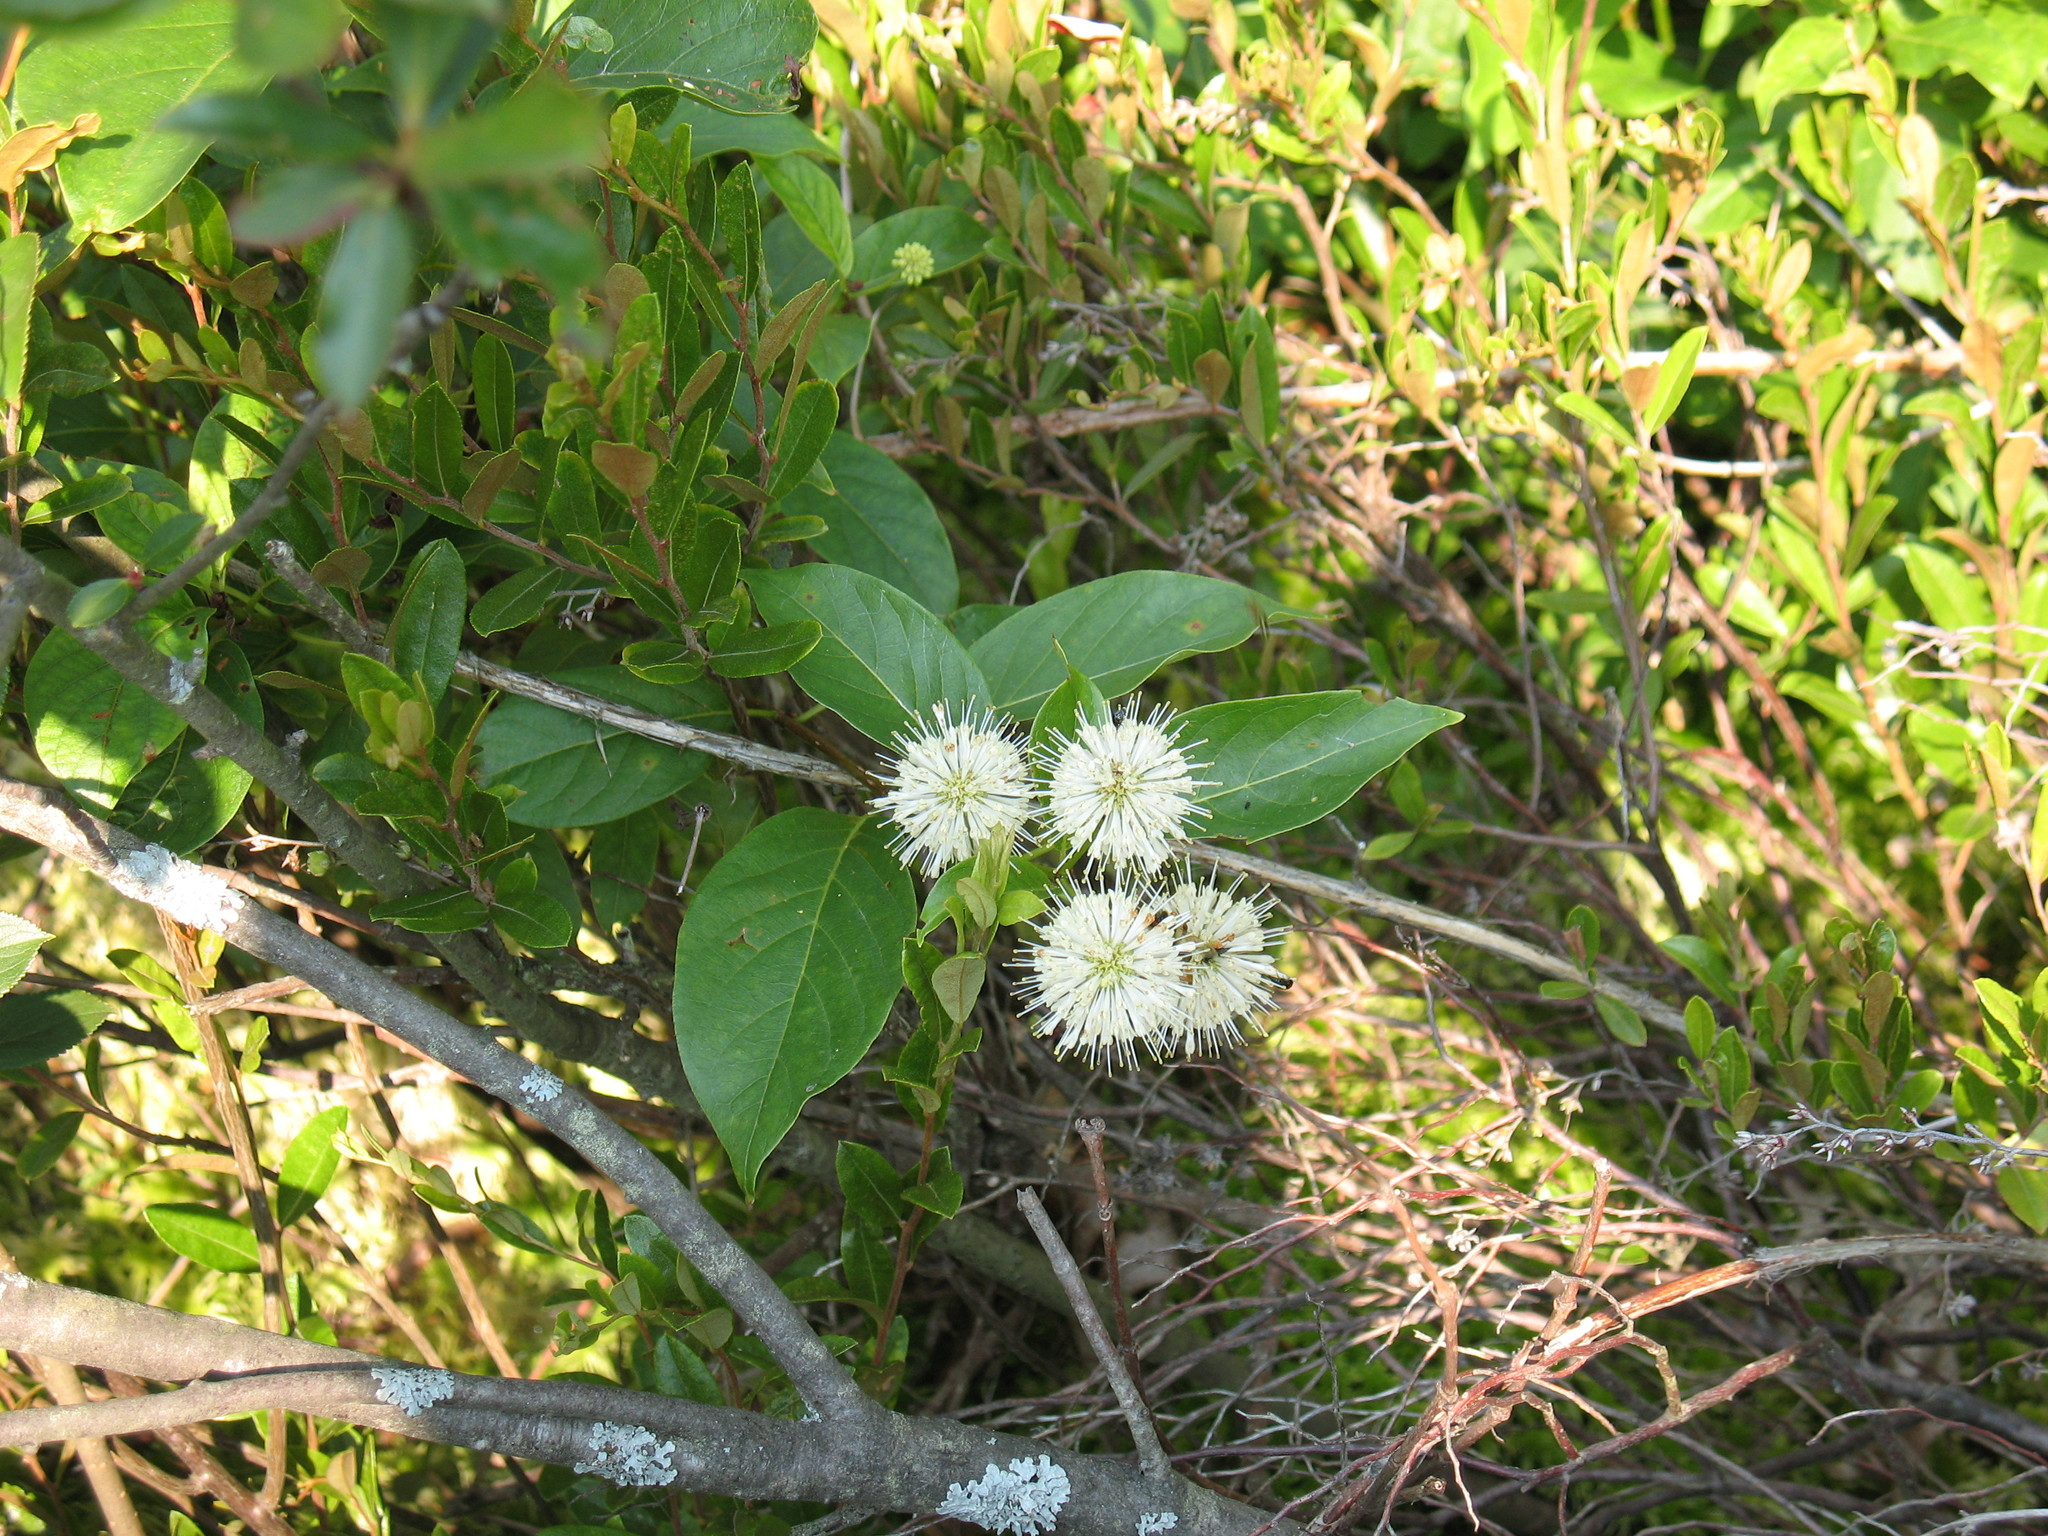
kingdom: Plantae
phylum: Tracheophyta
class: Magnoliopsida
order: Gentianales
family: Rubiaceae
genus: Cephalanthus
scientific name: Cephalanthus occidentalis
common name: Button-willow
